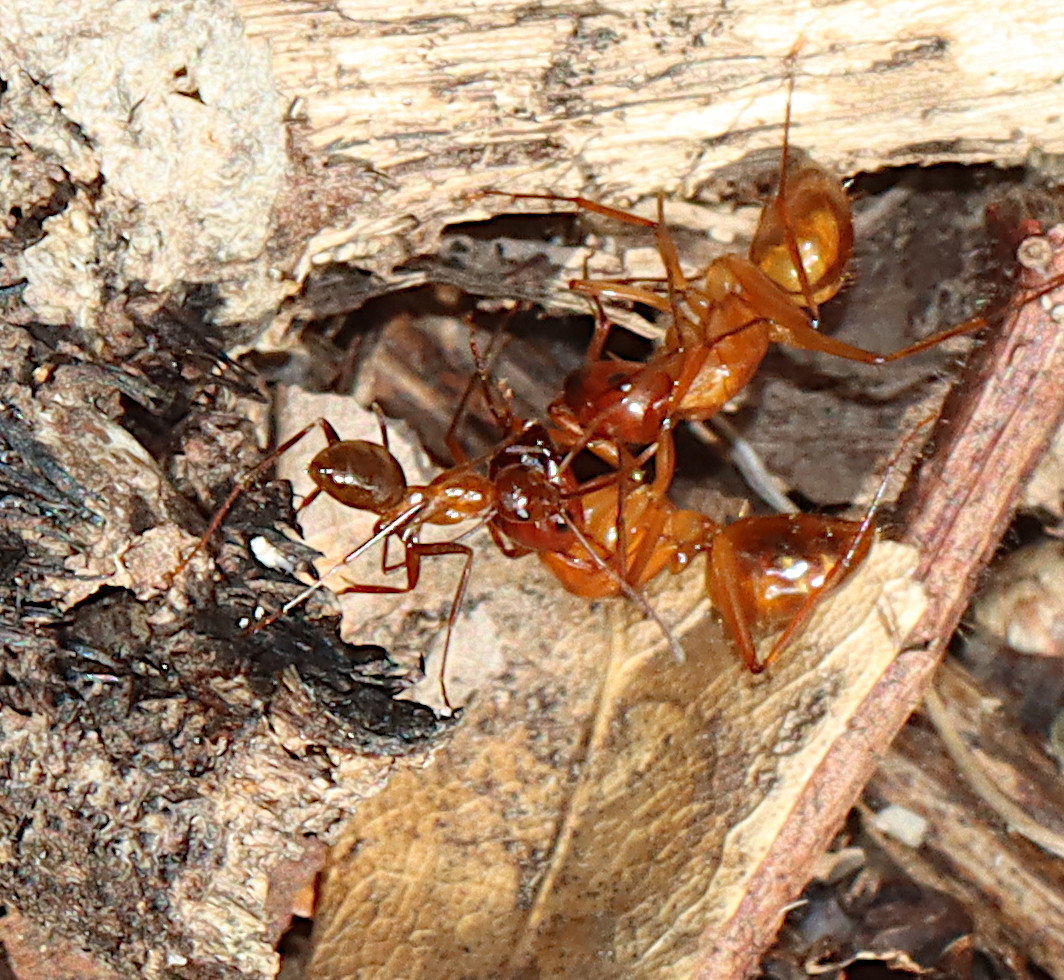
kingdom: Animalia
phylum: Arthropoda
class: Insecta
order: Hymenoptera
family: Formicidae
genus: Camponotus
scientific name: Camponotus castaneus
